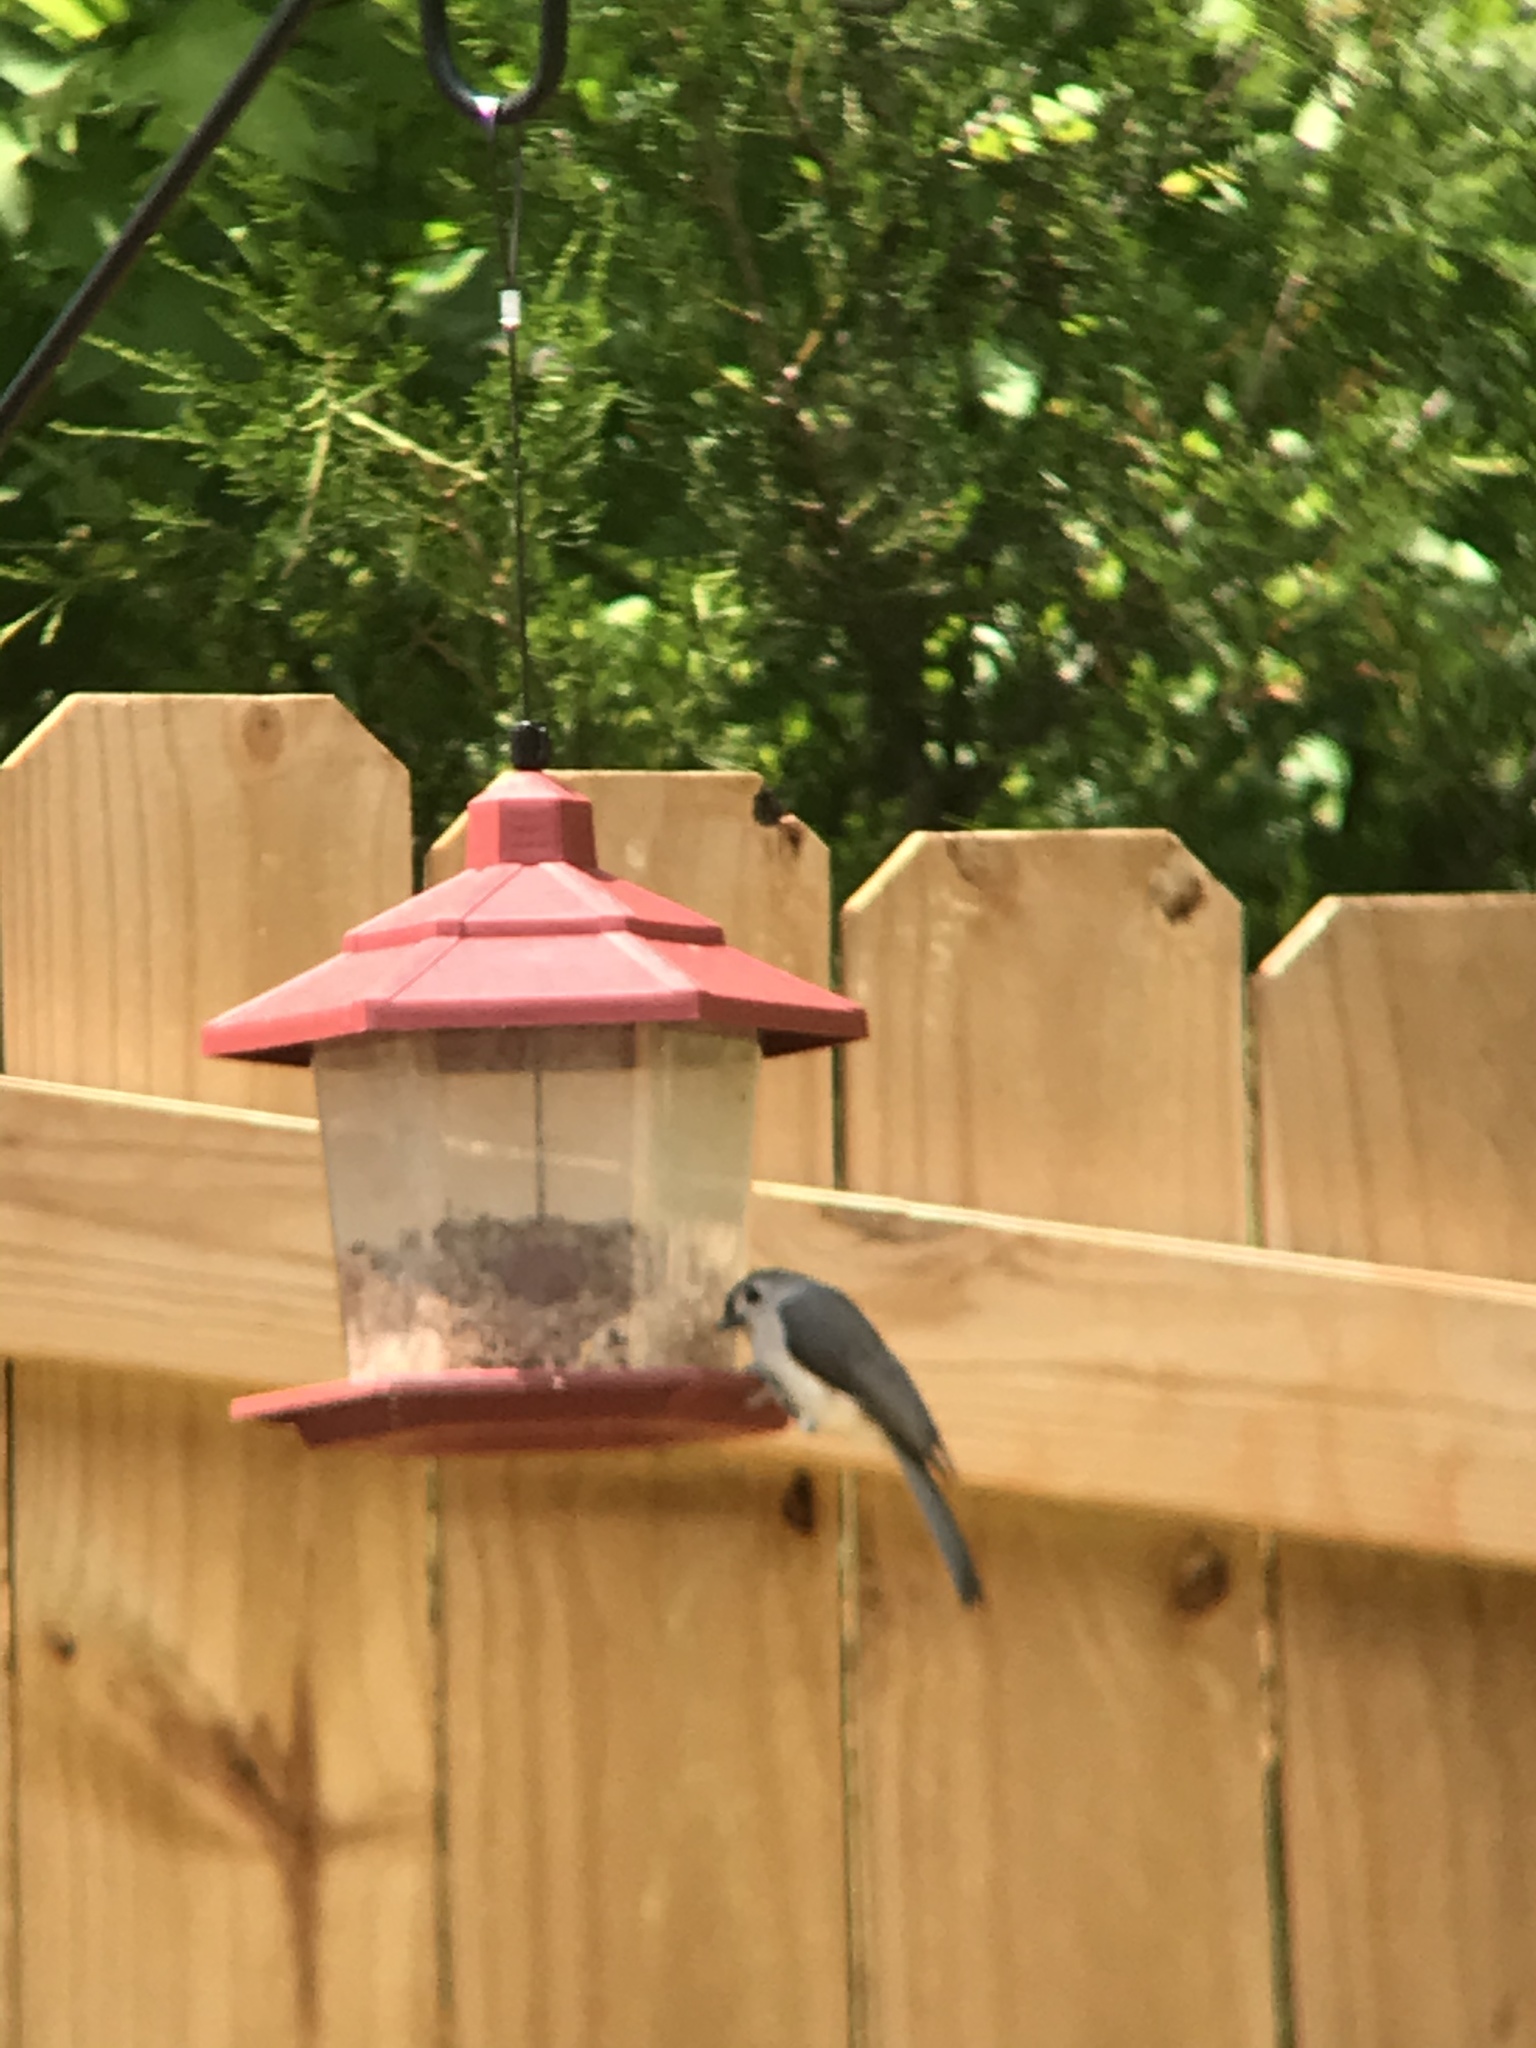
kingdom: Animalia
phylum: Chordata
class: Aves
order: Passeriformes
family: Paridae
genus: Baeolophus
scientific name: Baeolophus bicolor
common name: Tufted titmouse
